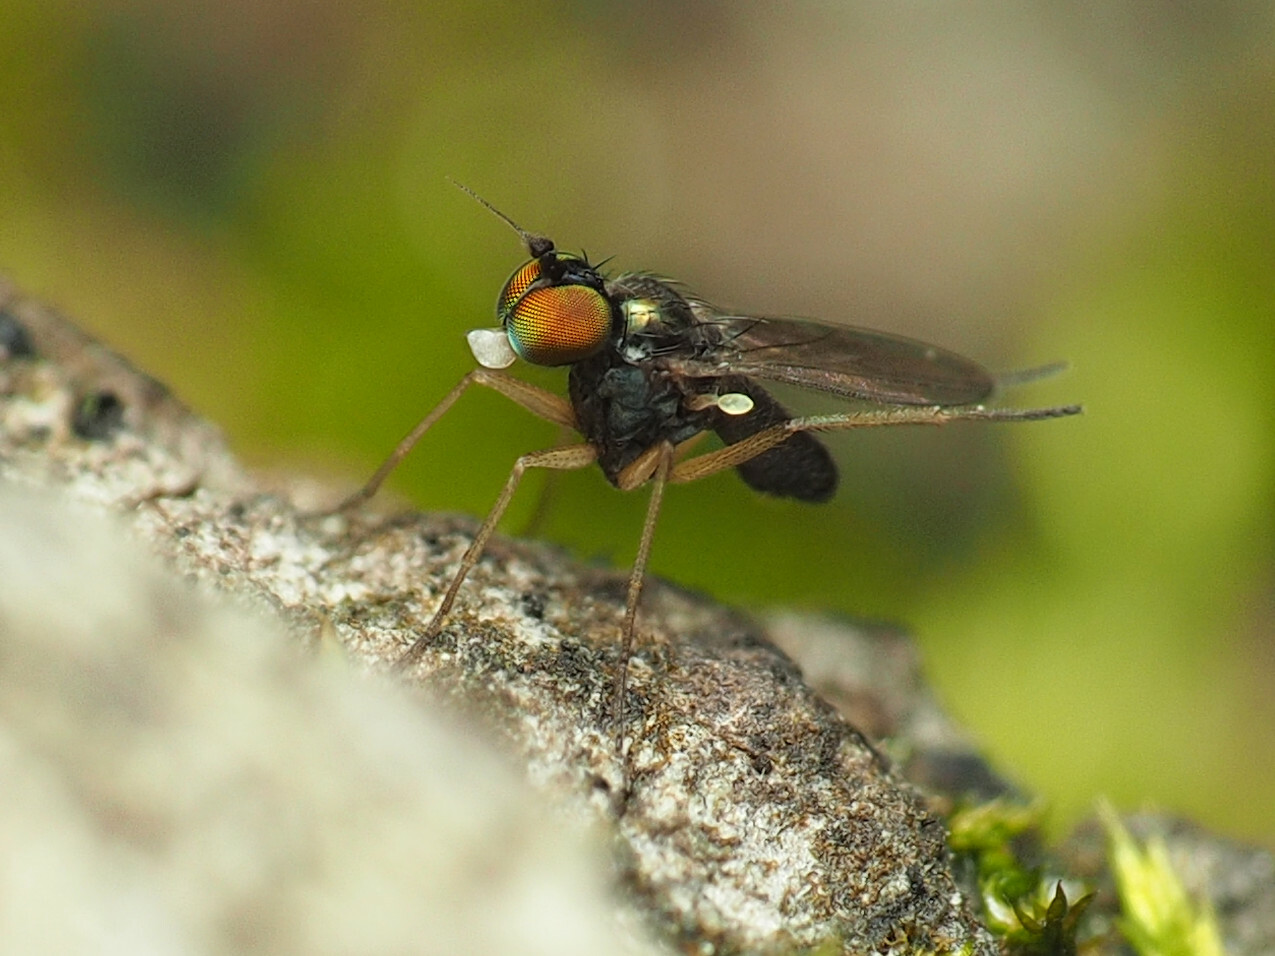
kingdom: Animalia
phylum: Arthropoda
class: Insecta
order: Diptera
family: Dolichopodidae
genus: Chrysotus
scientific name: Chrysotus crosbyi
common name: Longlegged fly
